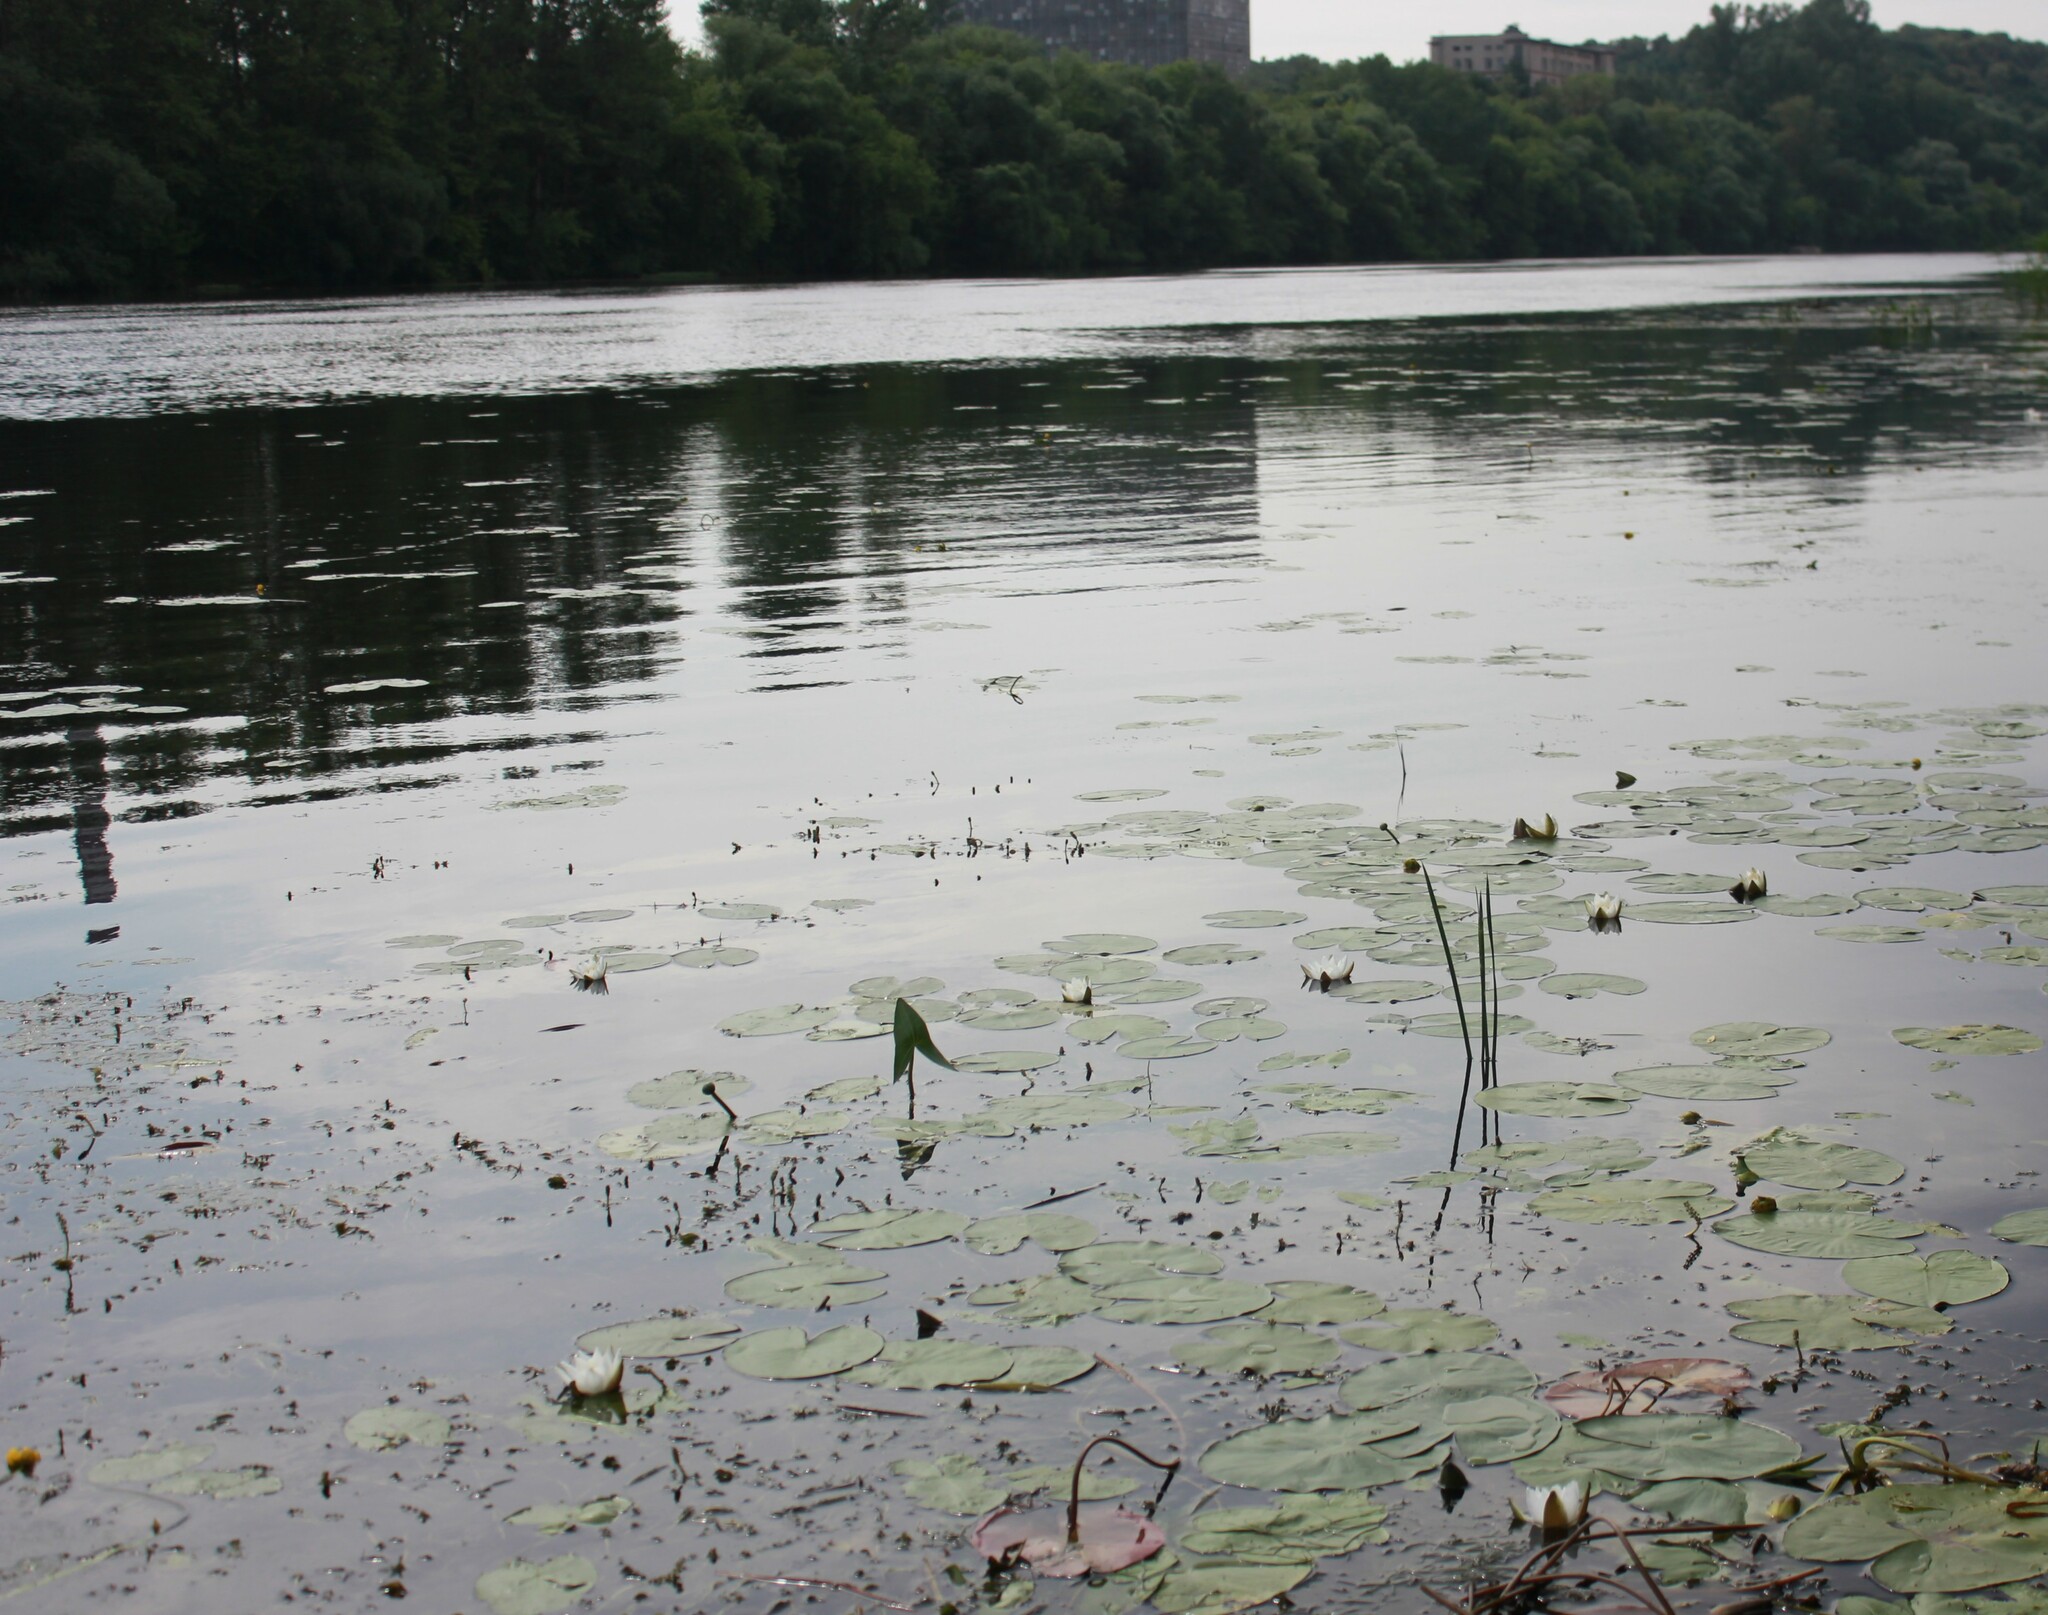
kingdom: Plantae
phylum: Tracheophyta
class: Magnoliopsida
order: Nymphaeales
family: Nymphaeaceae
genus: Nymphaea
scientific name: Nymphaea candida
